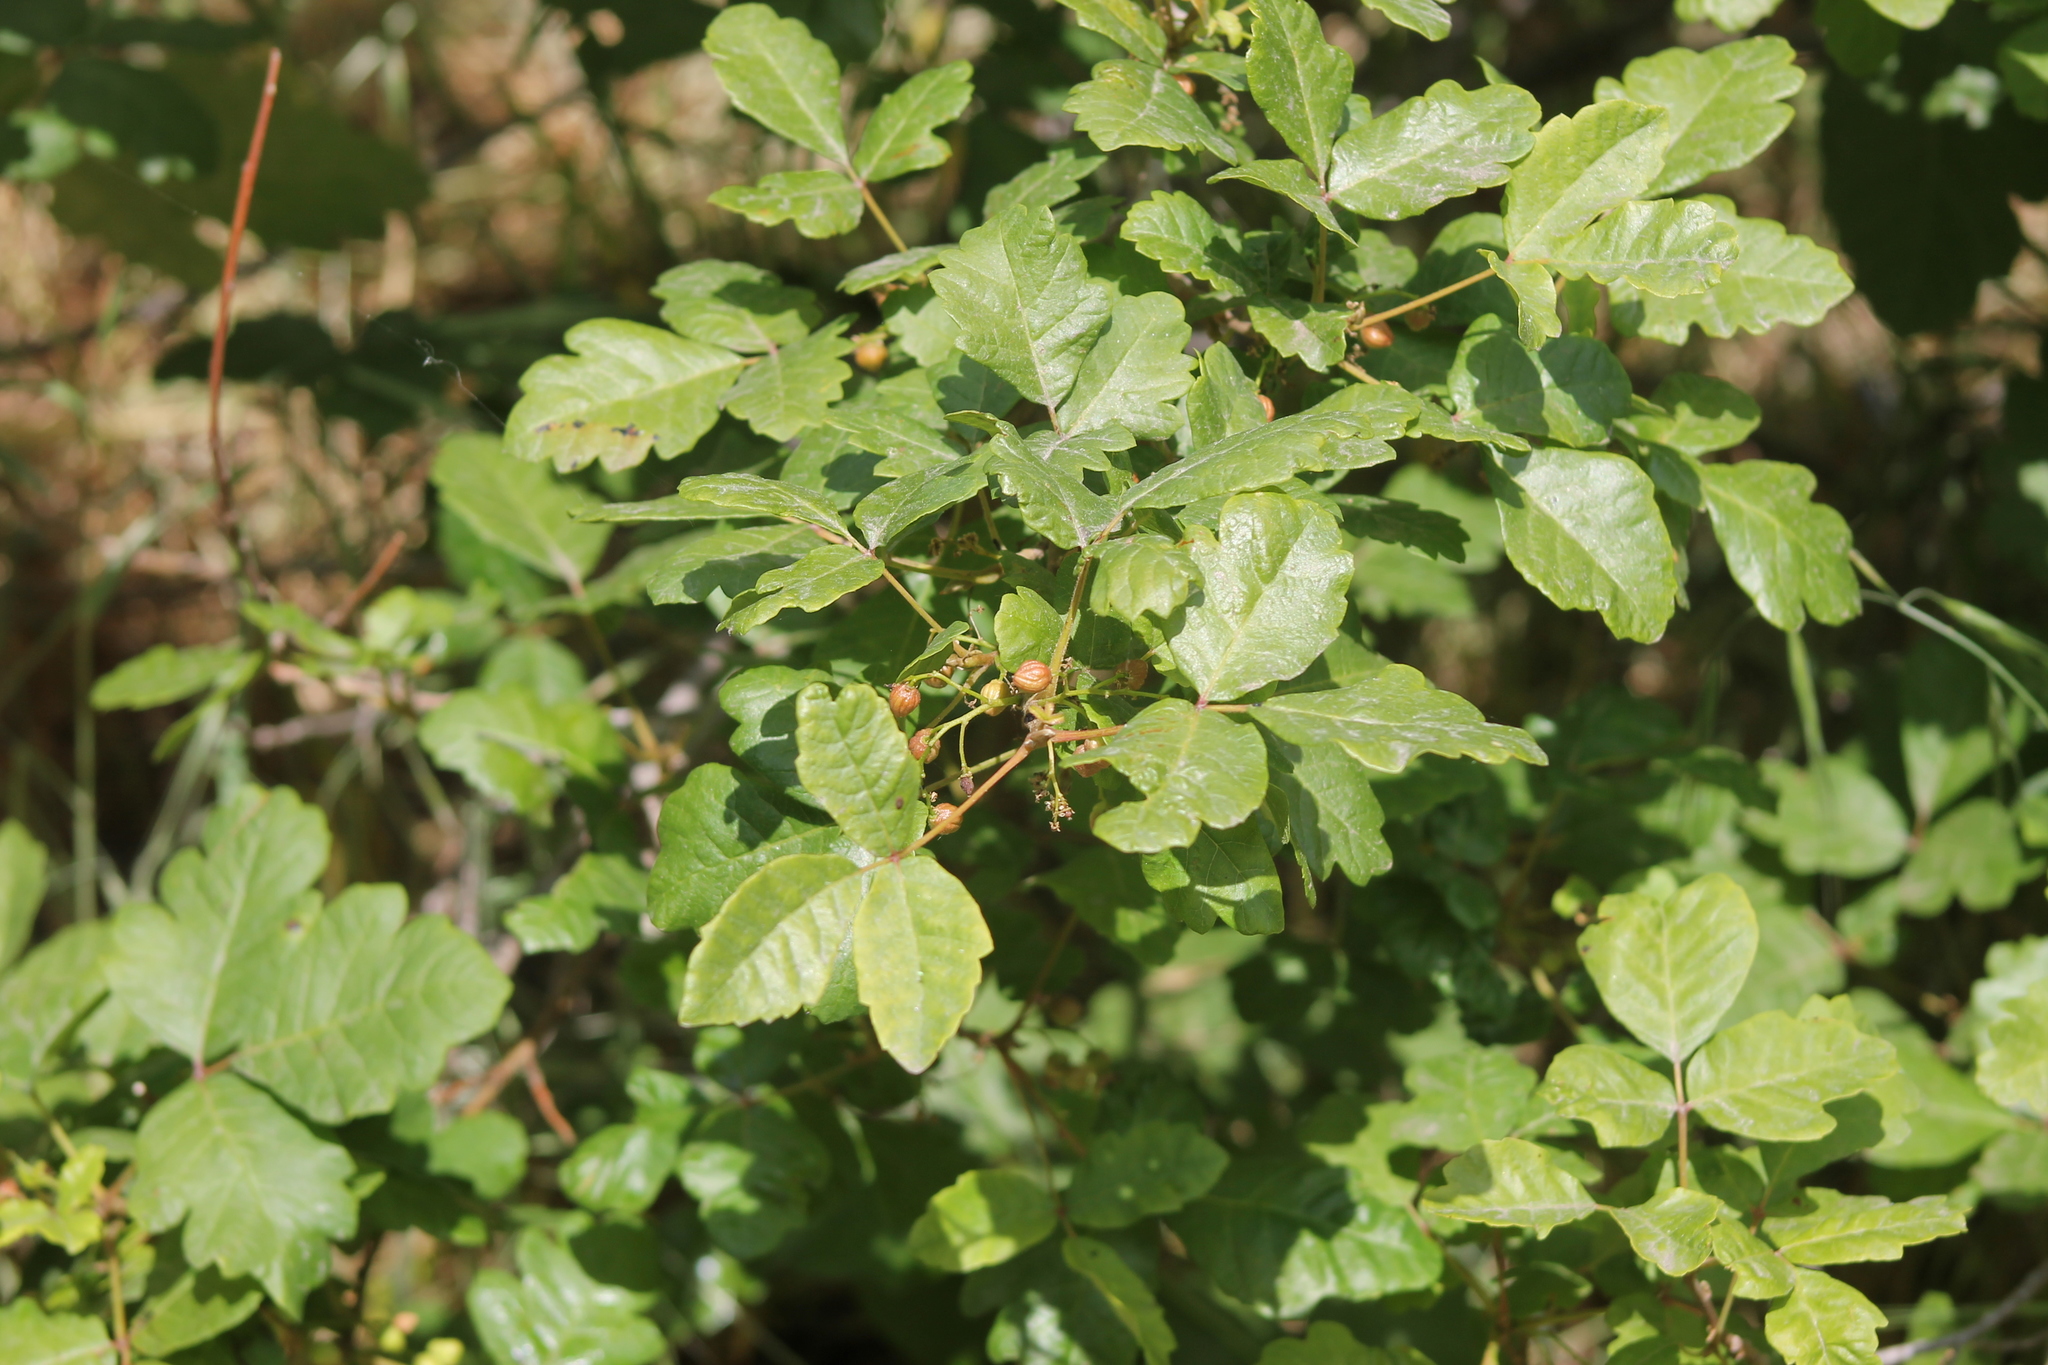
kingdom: Plantae
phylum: Tracheophyta
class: Magnoliopsida
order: Sapindales
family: Anacardiaceae
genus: Toxicodendron
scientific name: Toxicodendron diversilobum
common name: Pacific poison-oak
